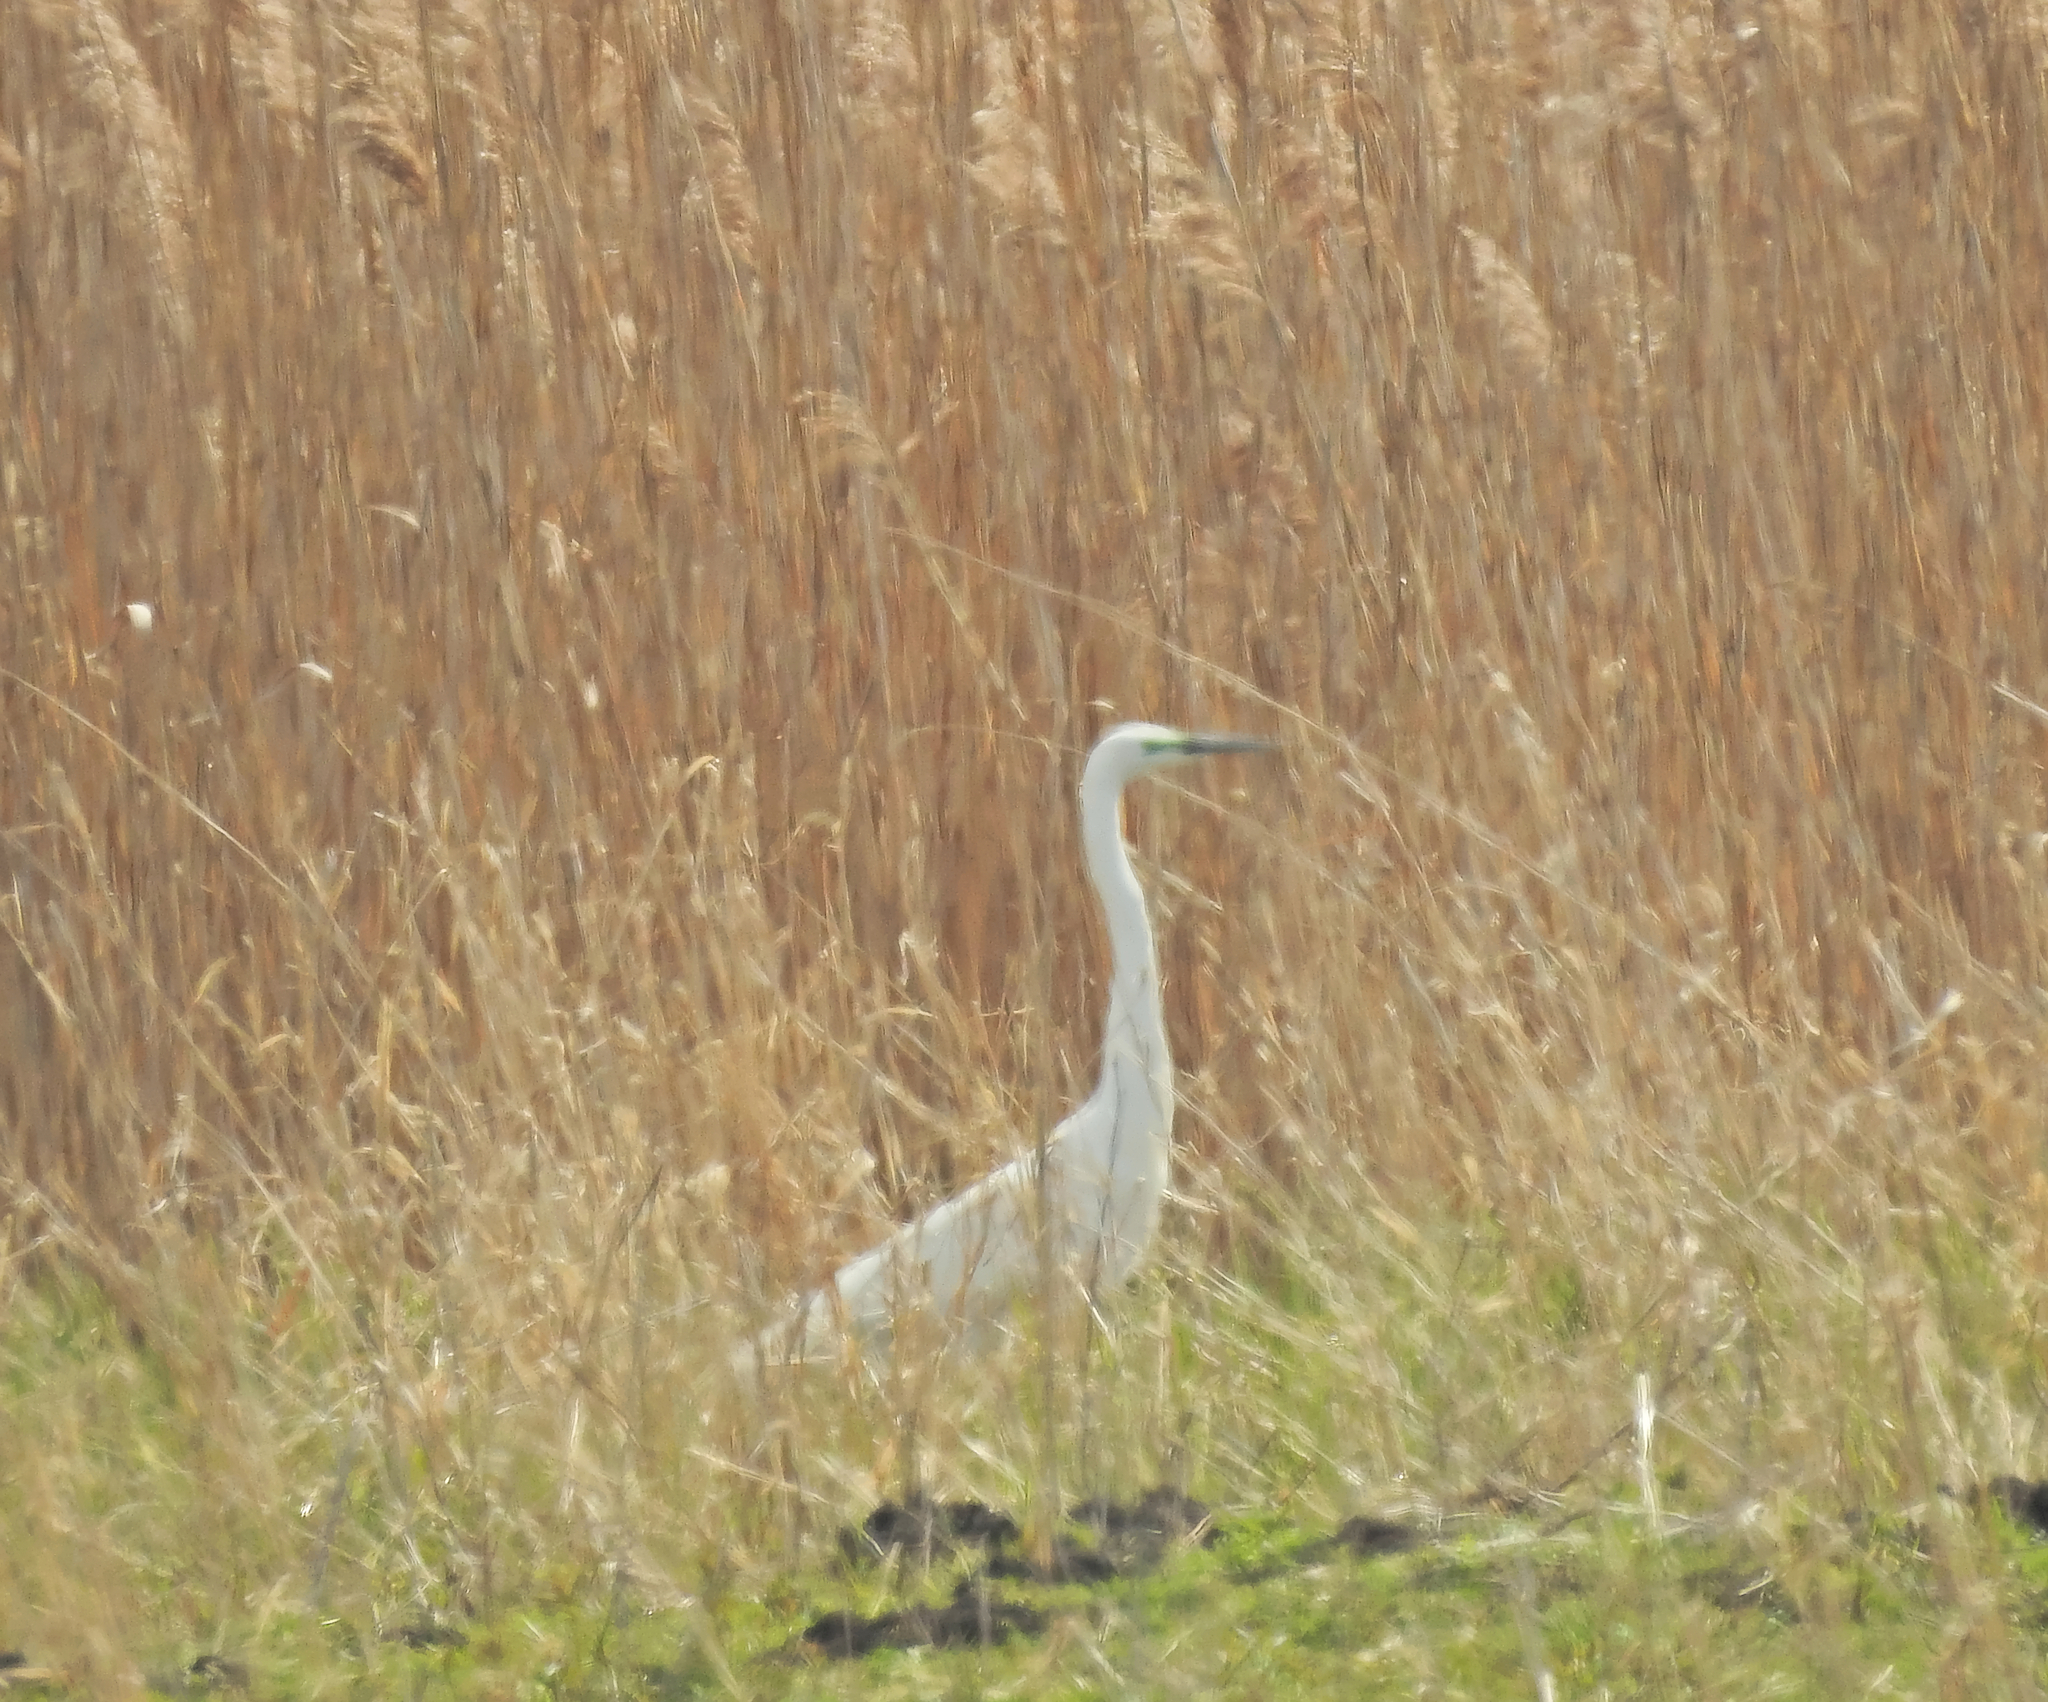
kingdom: Animalia
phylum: Chordata
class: Aves
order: Pelecaniformes
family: Ardeidae
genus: Ardea
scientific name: Ardea alba
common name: Great egret
